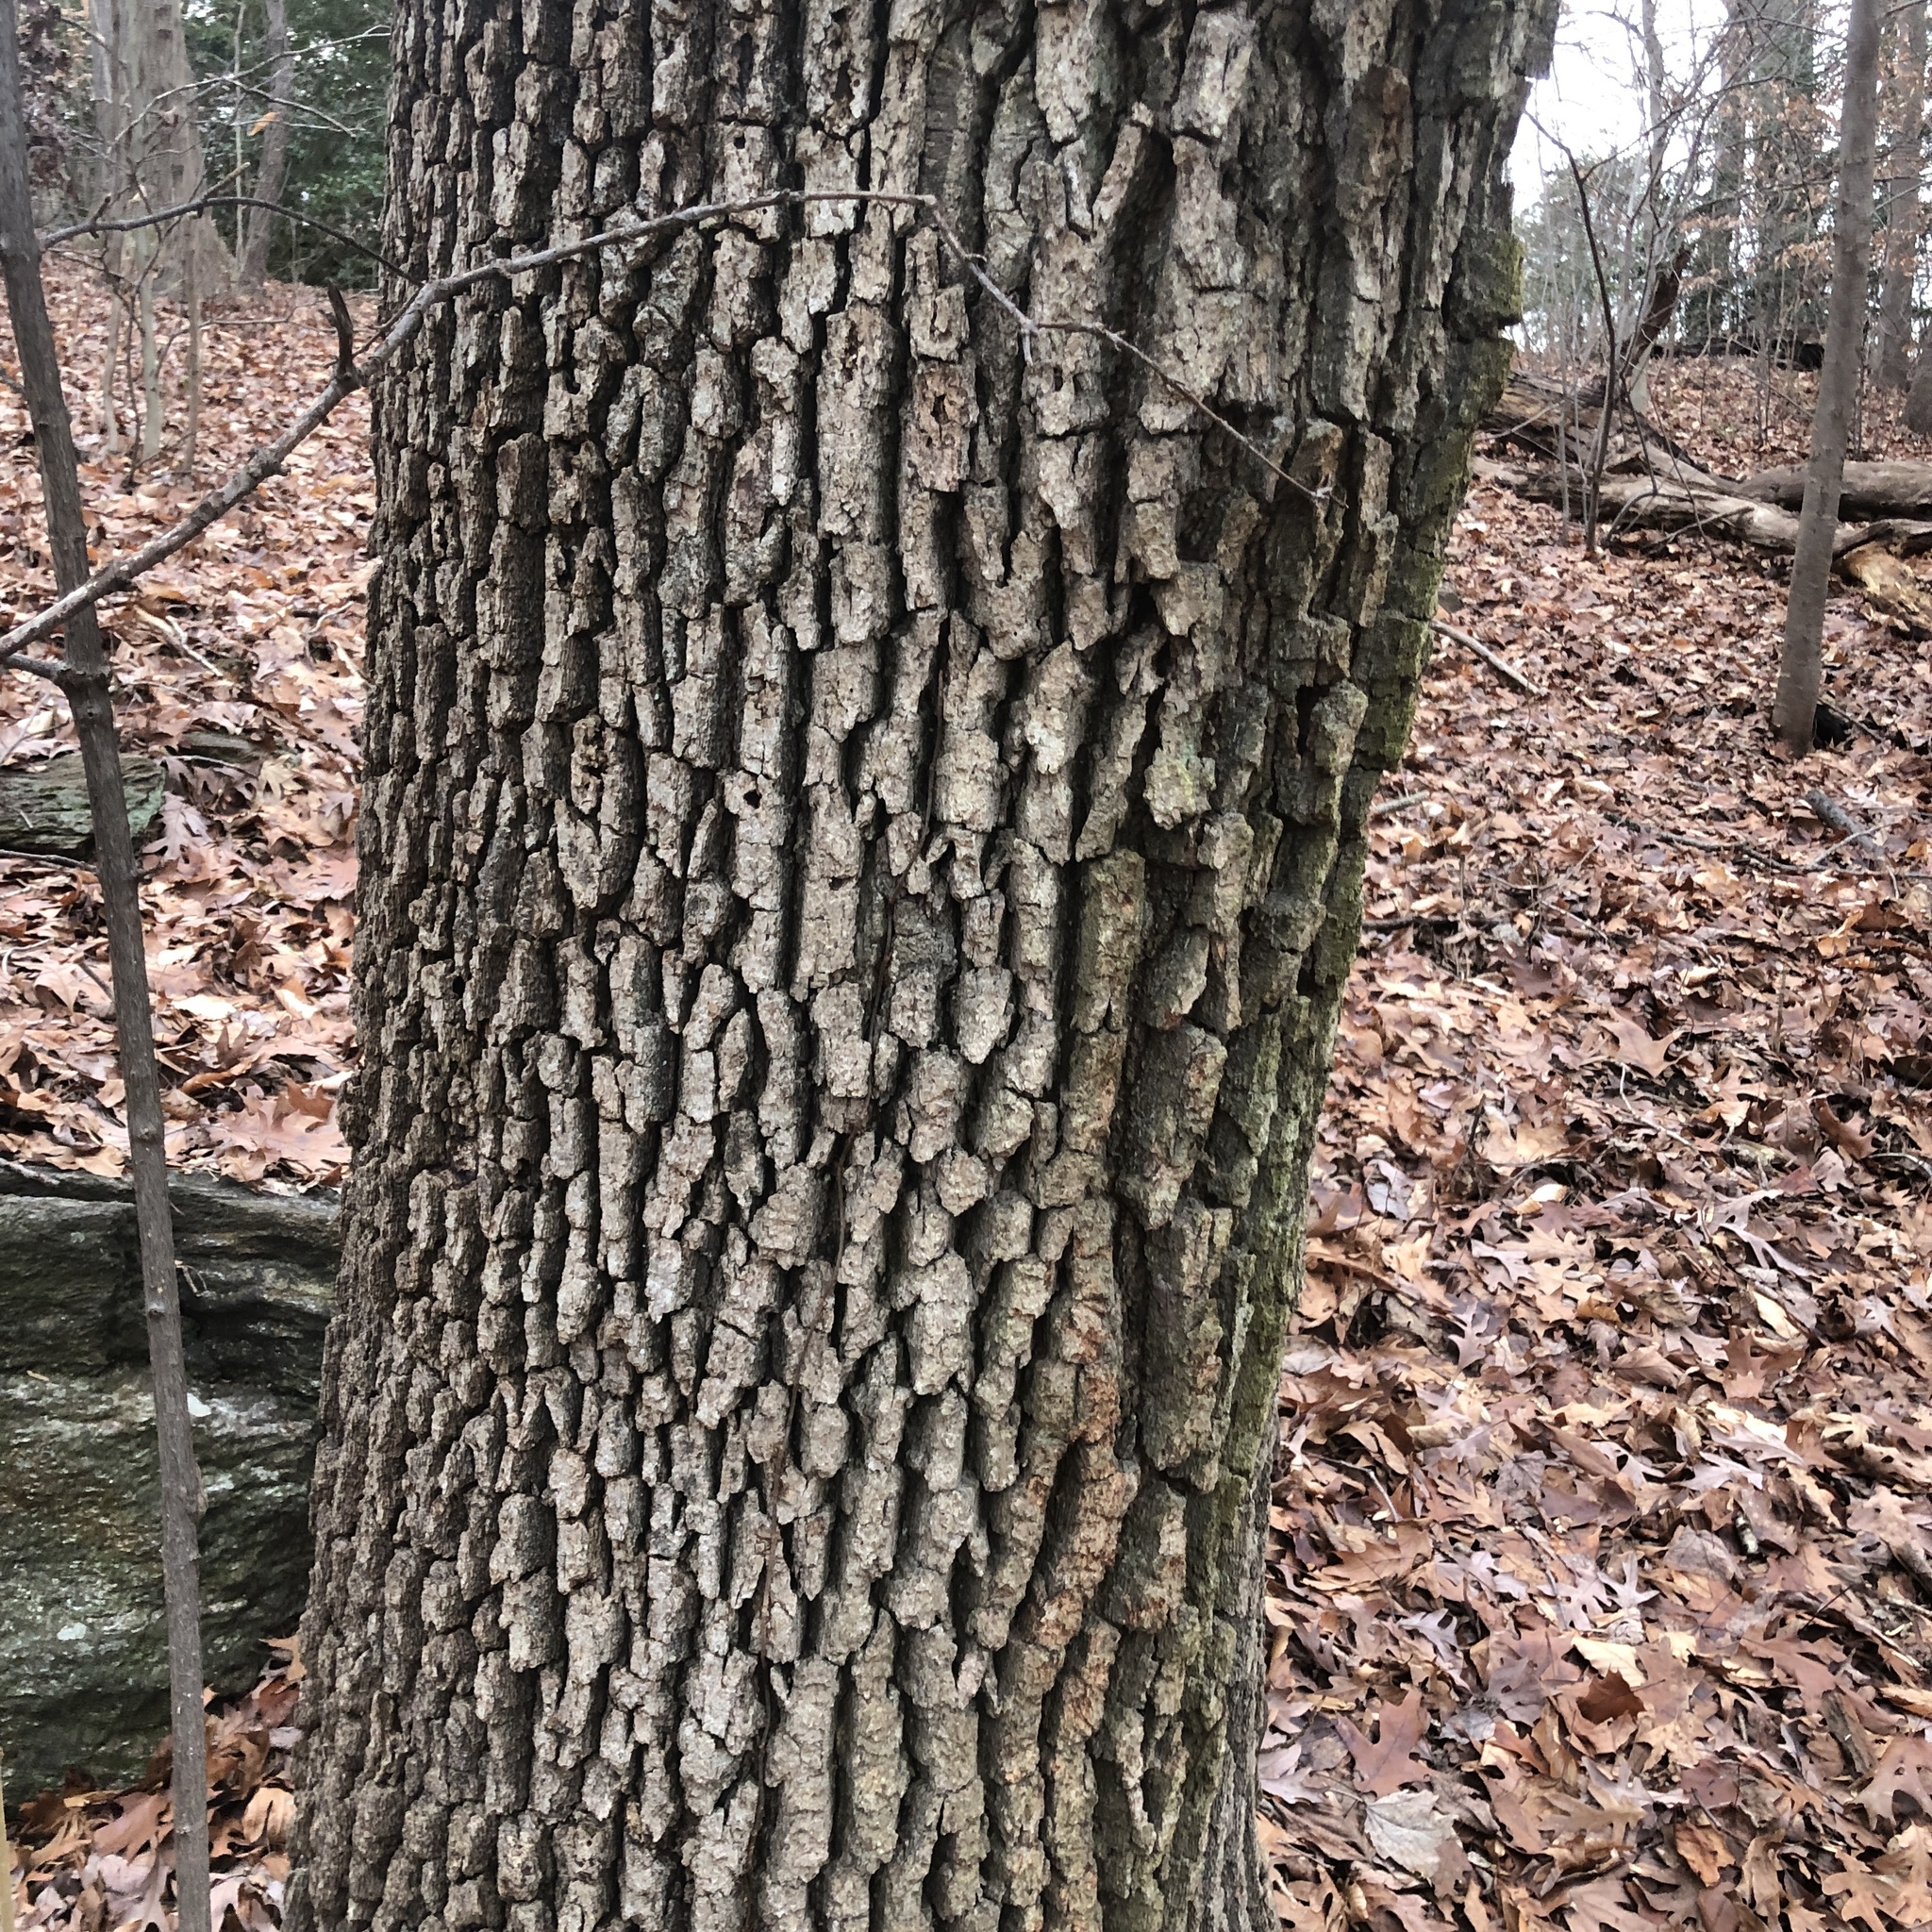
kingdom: Plantae
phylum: Tracheophyta
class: Magnoliopsida
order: Fagales
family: Fagaceae
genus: Quercus
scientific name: Quercus alba
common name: White oak
